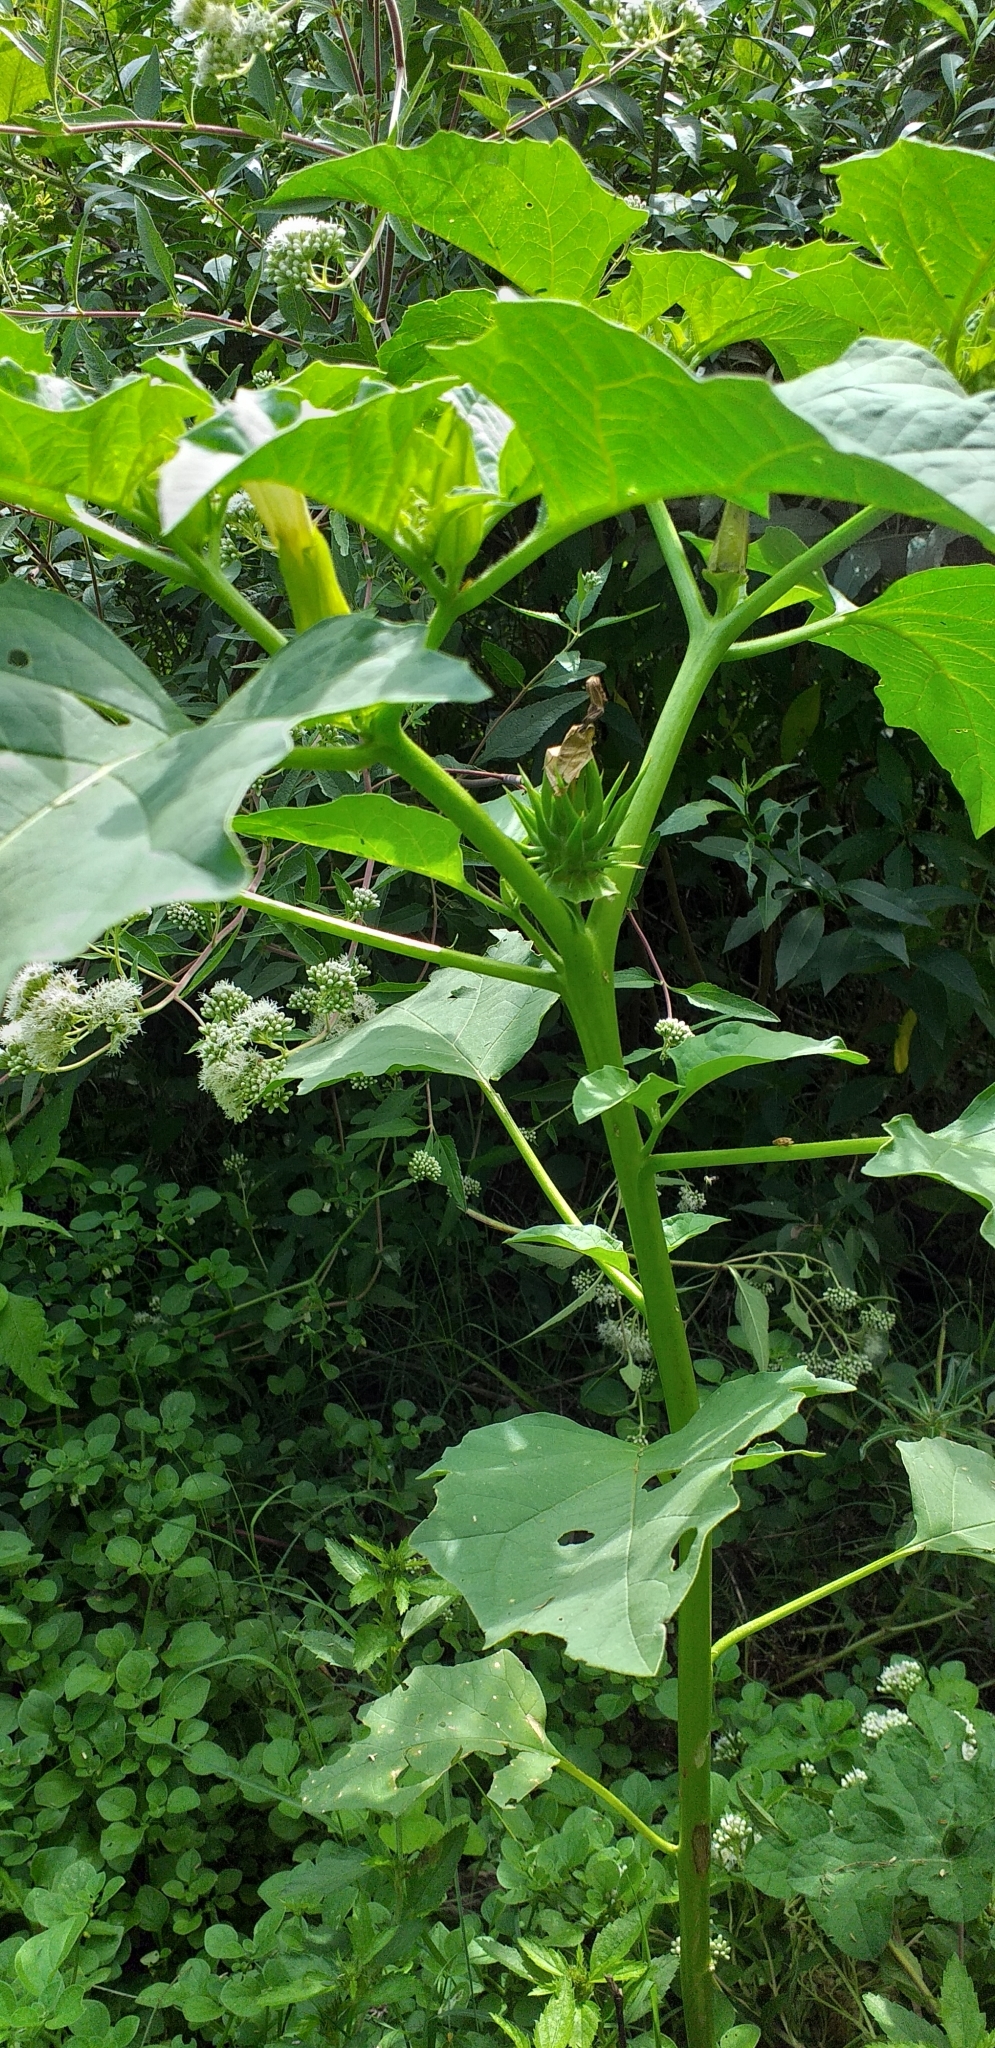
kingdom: Plantae
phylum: Tracheophyta
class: Magnoliopsida
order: Solanales
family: Solanaceae
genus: Datura
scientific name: Datura ferox
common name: Angel's-trumpets
